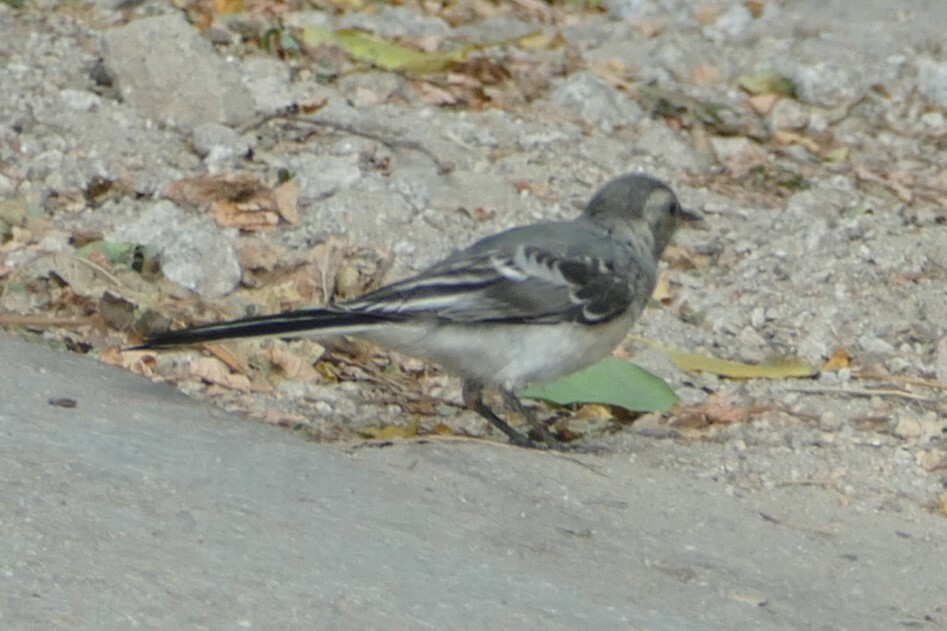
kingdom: Animalia
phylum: Chordata
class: Aves
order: Passeriformes
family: Motacillidae
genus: Motacilla
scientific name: Motacilla alba
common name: White wagtail
